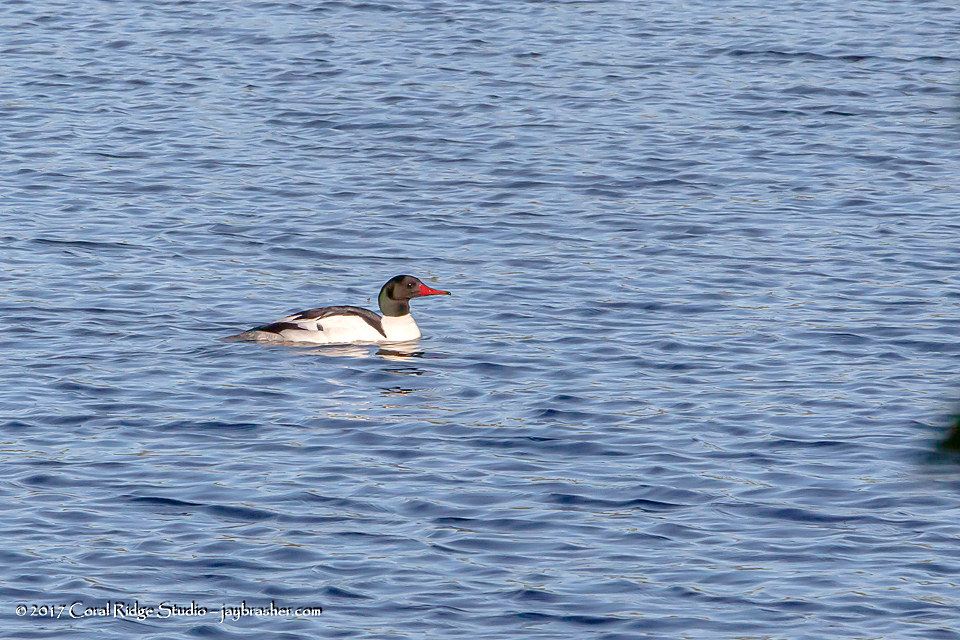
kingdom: Animalia
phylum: Chordata
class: Aves
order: Anseriformes
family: Anatidae
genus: Mergus
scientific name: Mergus merganser
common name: Common merganser
